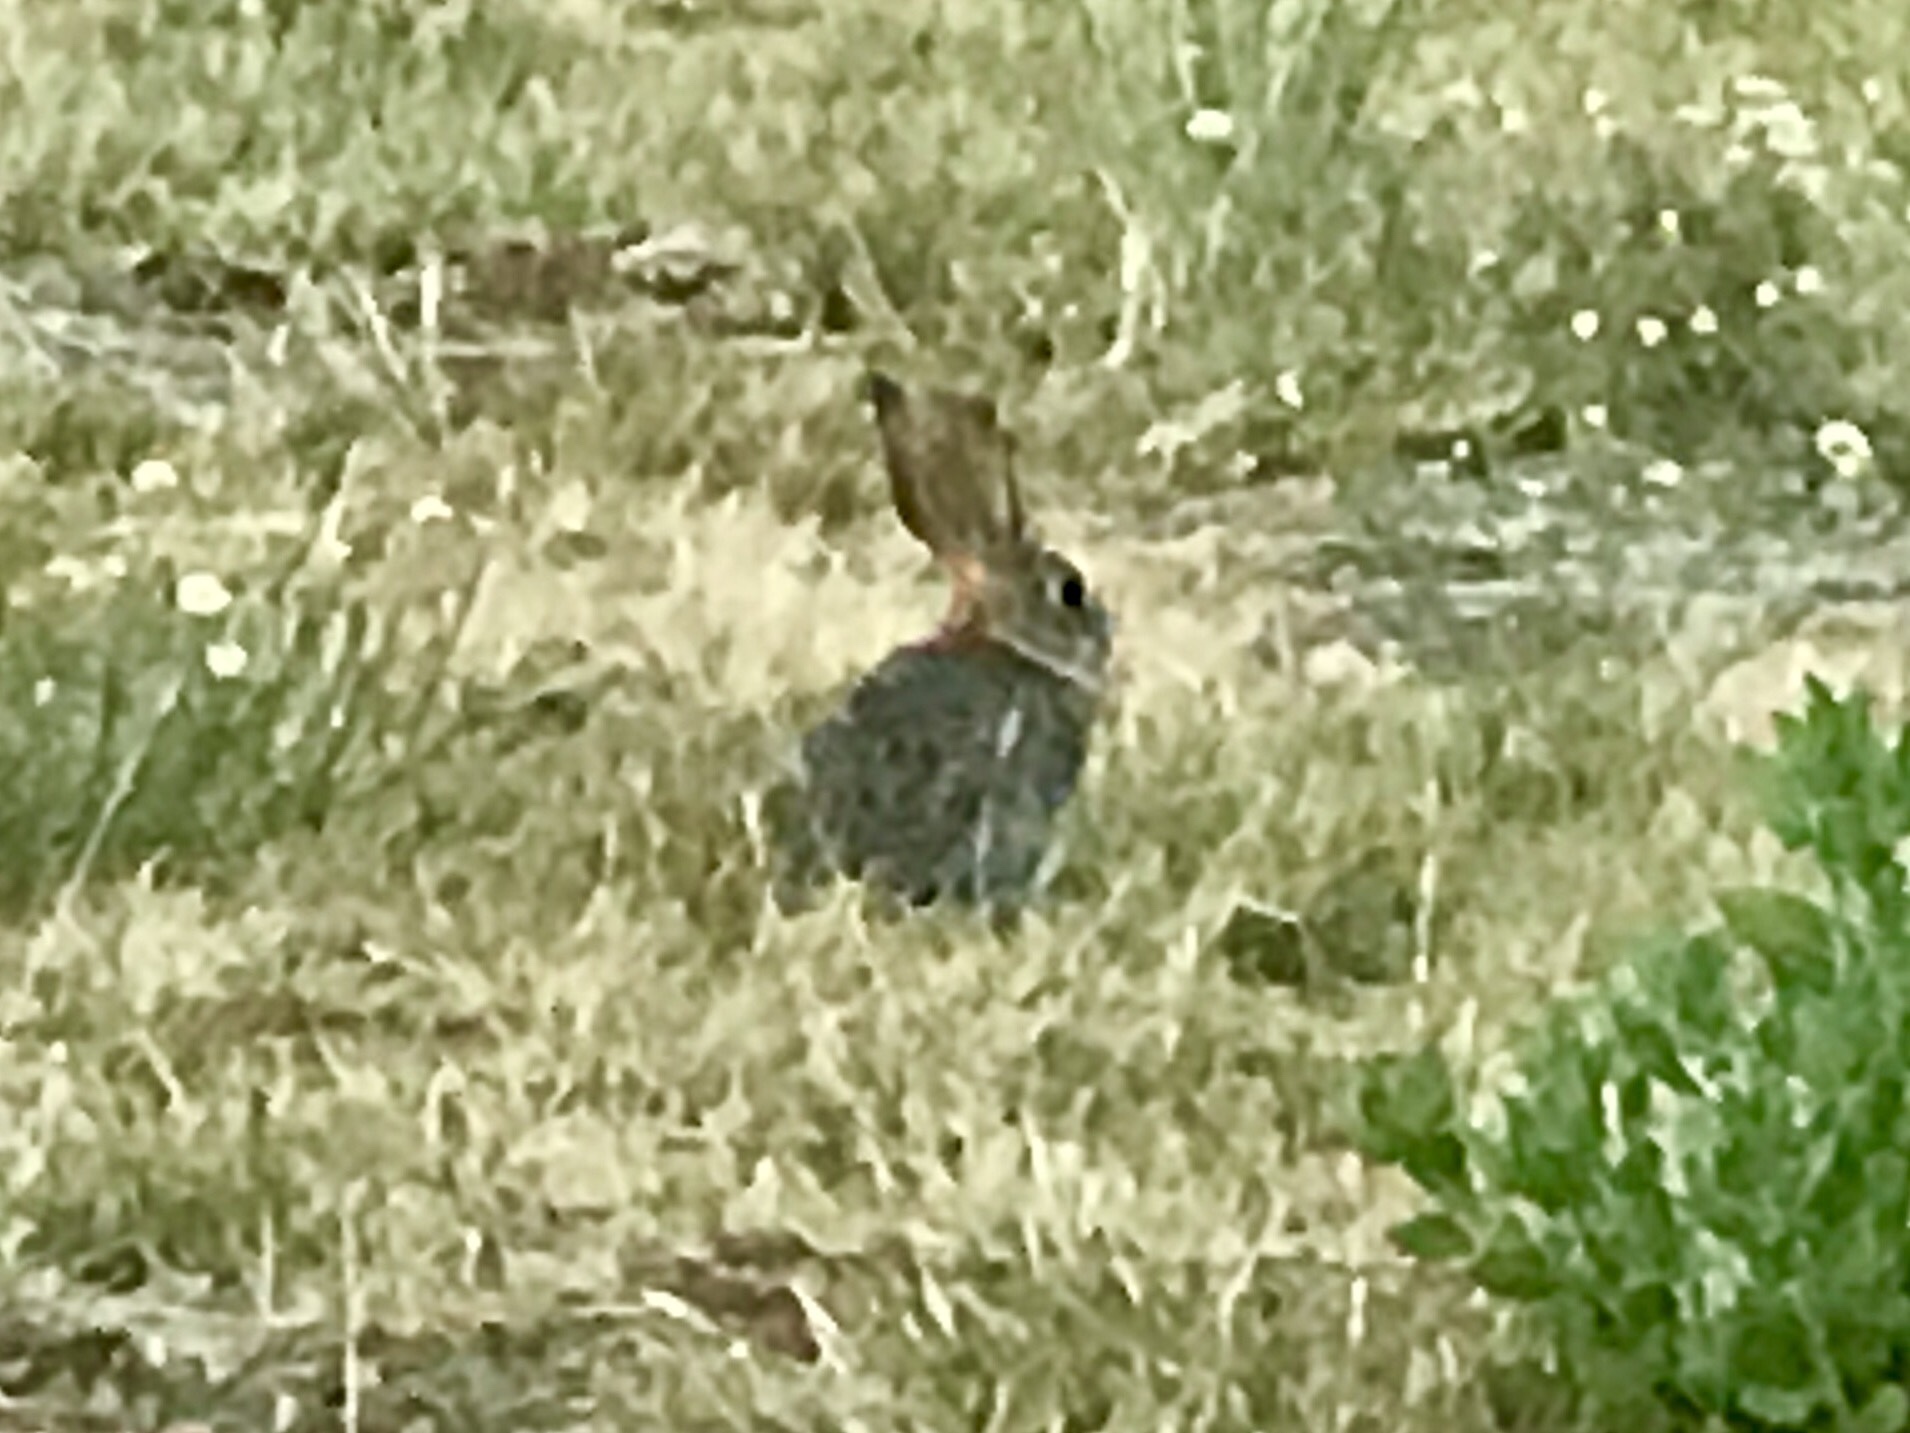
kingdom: Animalia
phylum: Chordata
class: Mammalia
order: Lagomorpha
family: Leporidae
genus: Sylvilagus
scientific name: Sylvilagus audubonii
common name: Desert cottontail
